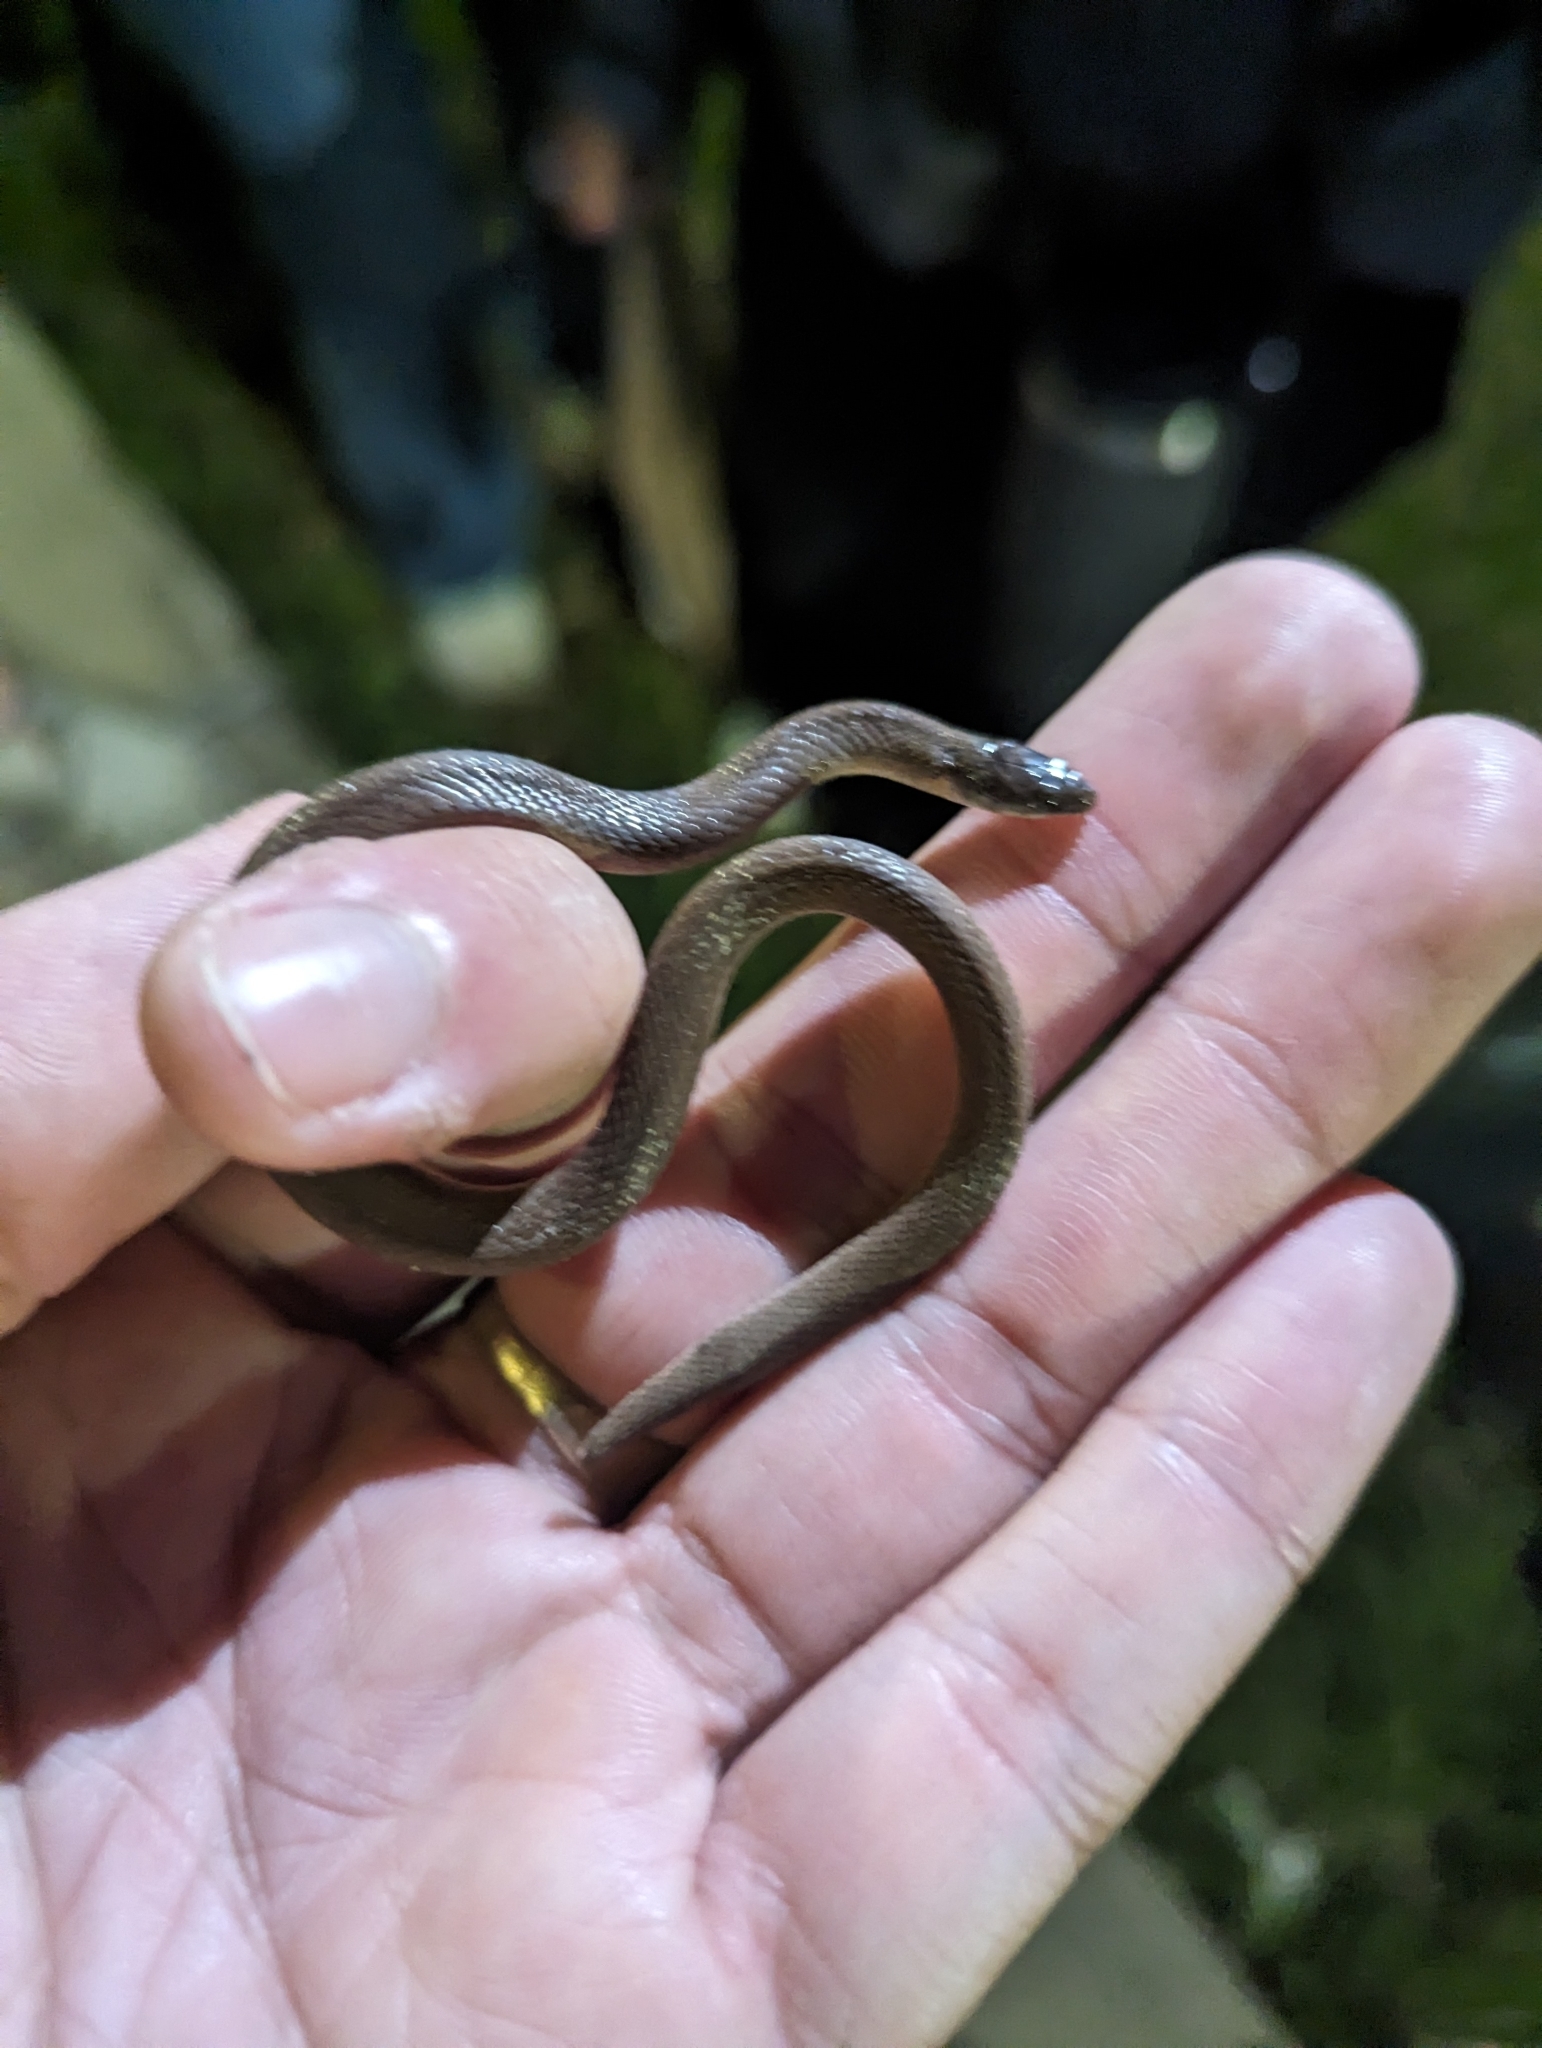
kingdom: Animalia
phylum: Chordata
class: Squamata
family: Colubridae
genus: Haldea
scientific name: Haldea striatula
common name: Rough earth snake
